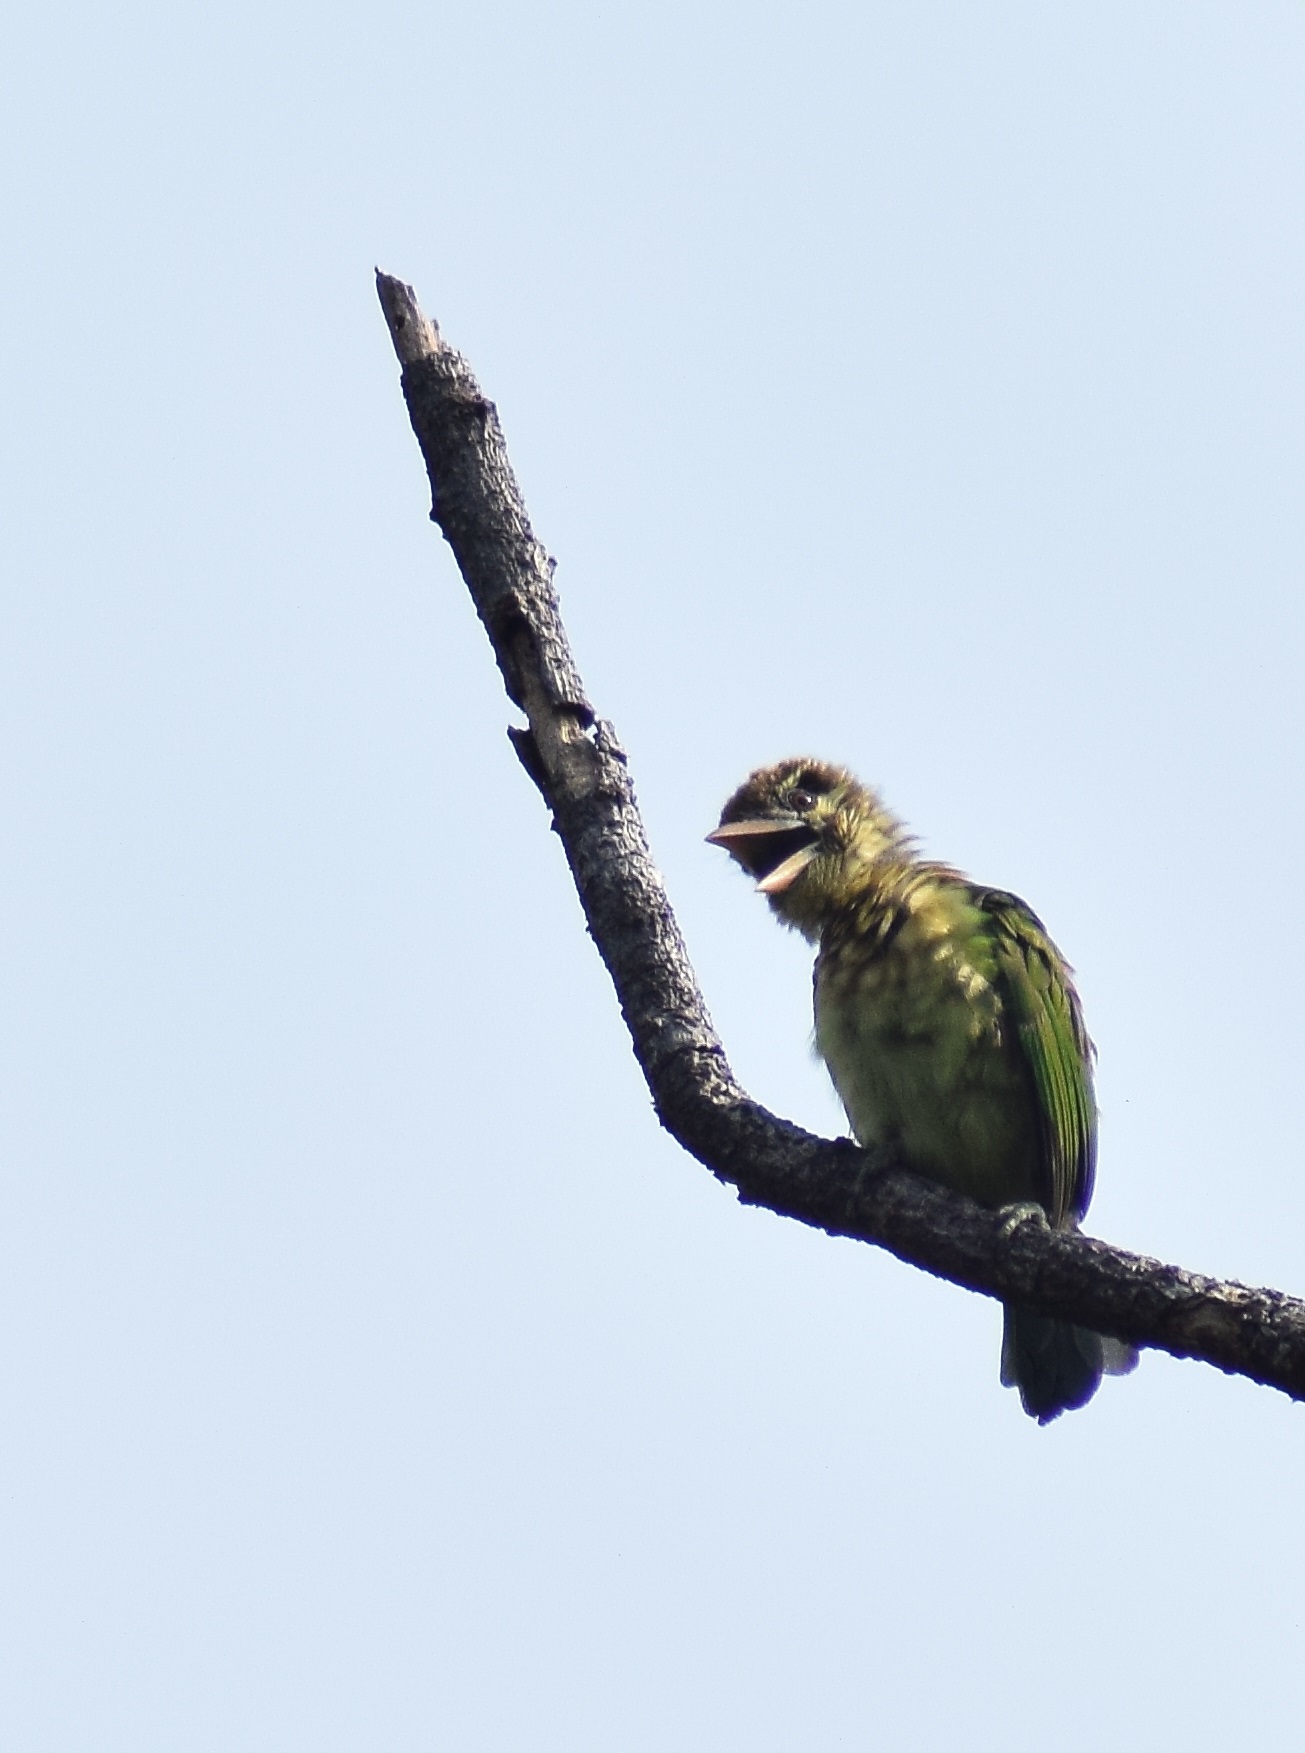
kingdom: Animalia
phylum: Chordata
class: Aves
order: Piciformes
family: Megalaimidae
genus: Psilopogon
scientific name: Psilopogon viridis
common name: White-cheeked barbet
